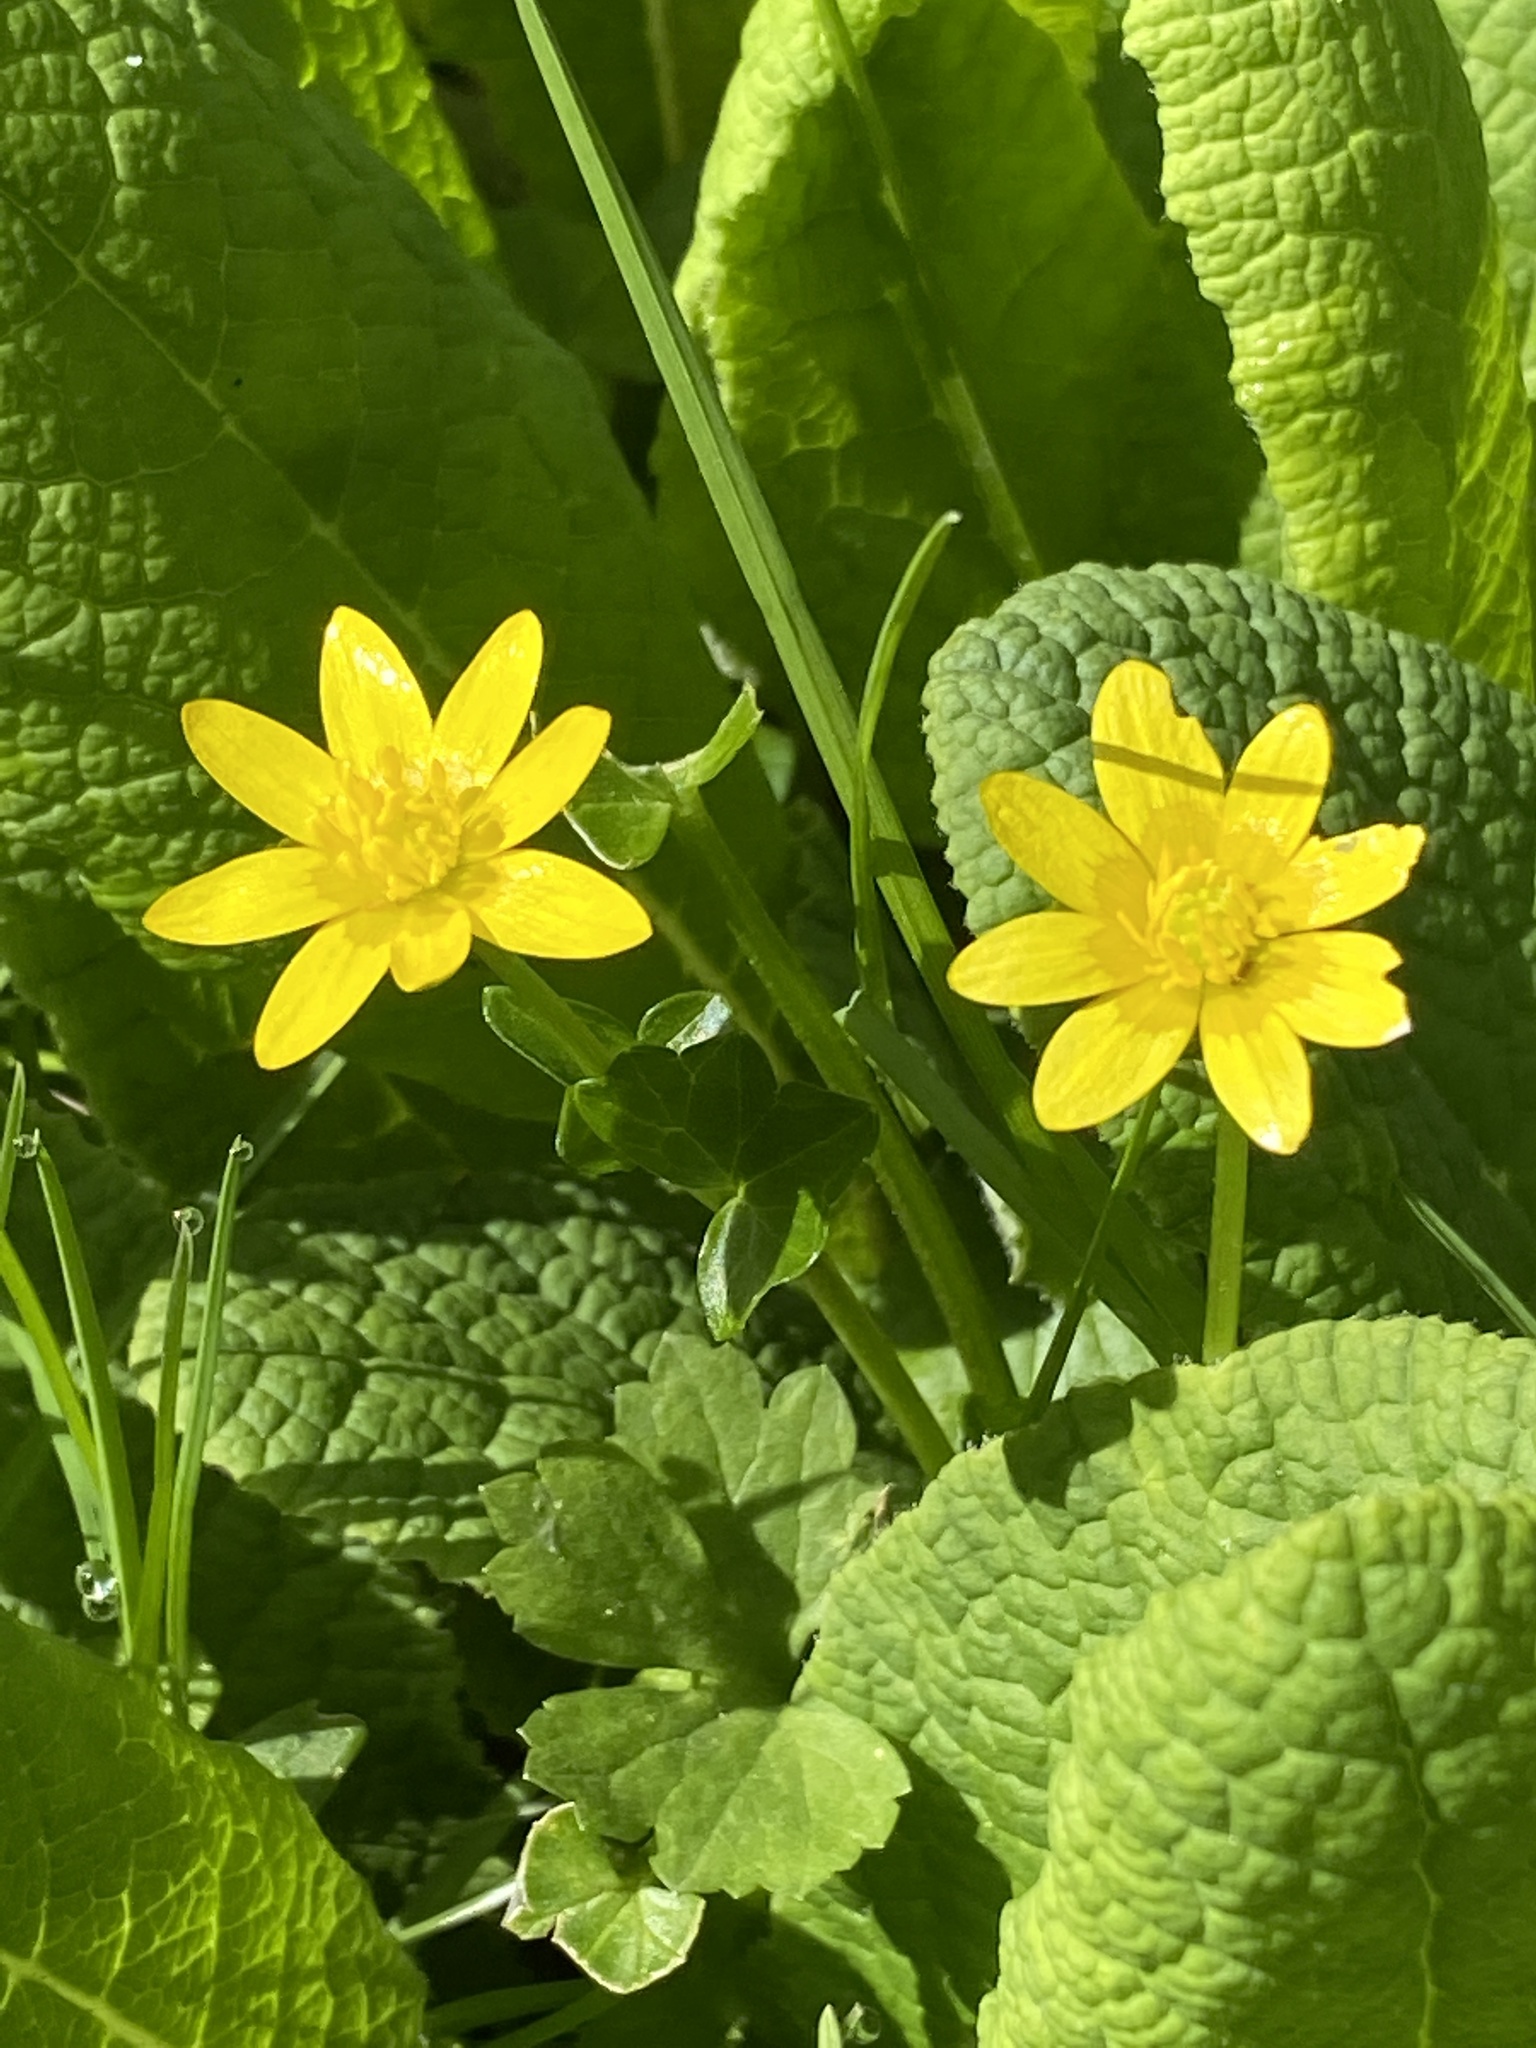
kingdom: Plantae
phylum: Tracheophyta
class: Magnoliopsida
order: Ranunculales
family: Ranunculaceae
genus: Ficaria
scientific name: Ficaria verna
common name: Lesser celandine
